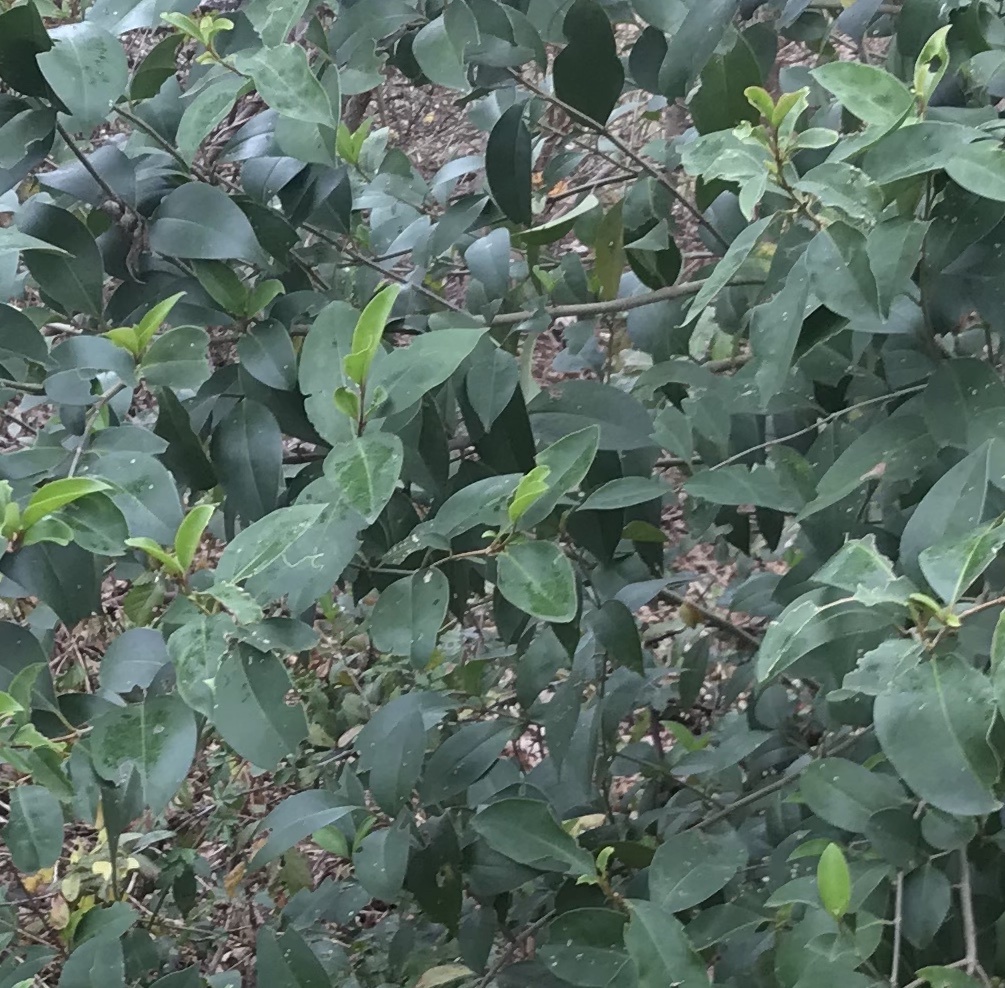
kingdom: Plantae
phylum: Tracheophyta
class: Magnoliopsida
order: Lamiales
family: Oleaceae
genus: Ligustrum
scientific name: Ligustrum lucidum
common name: Glossy privet
